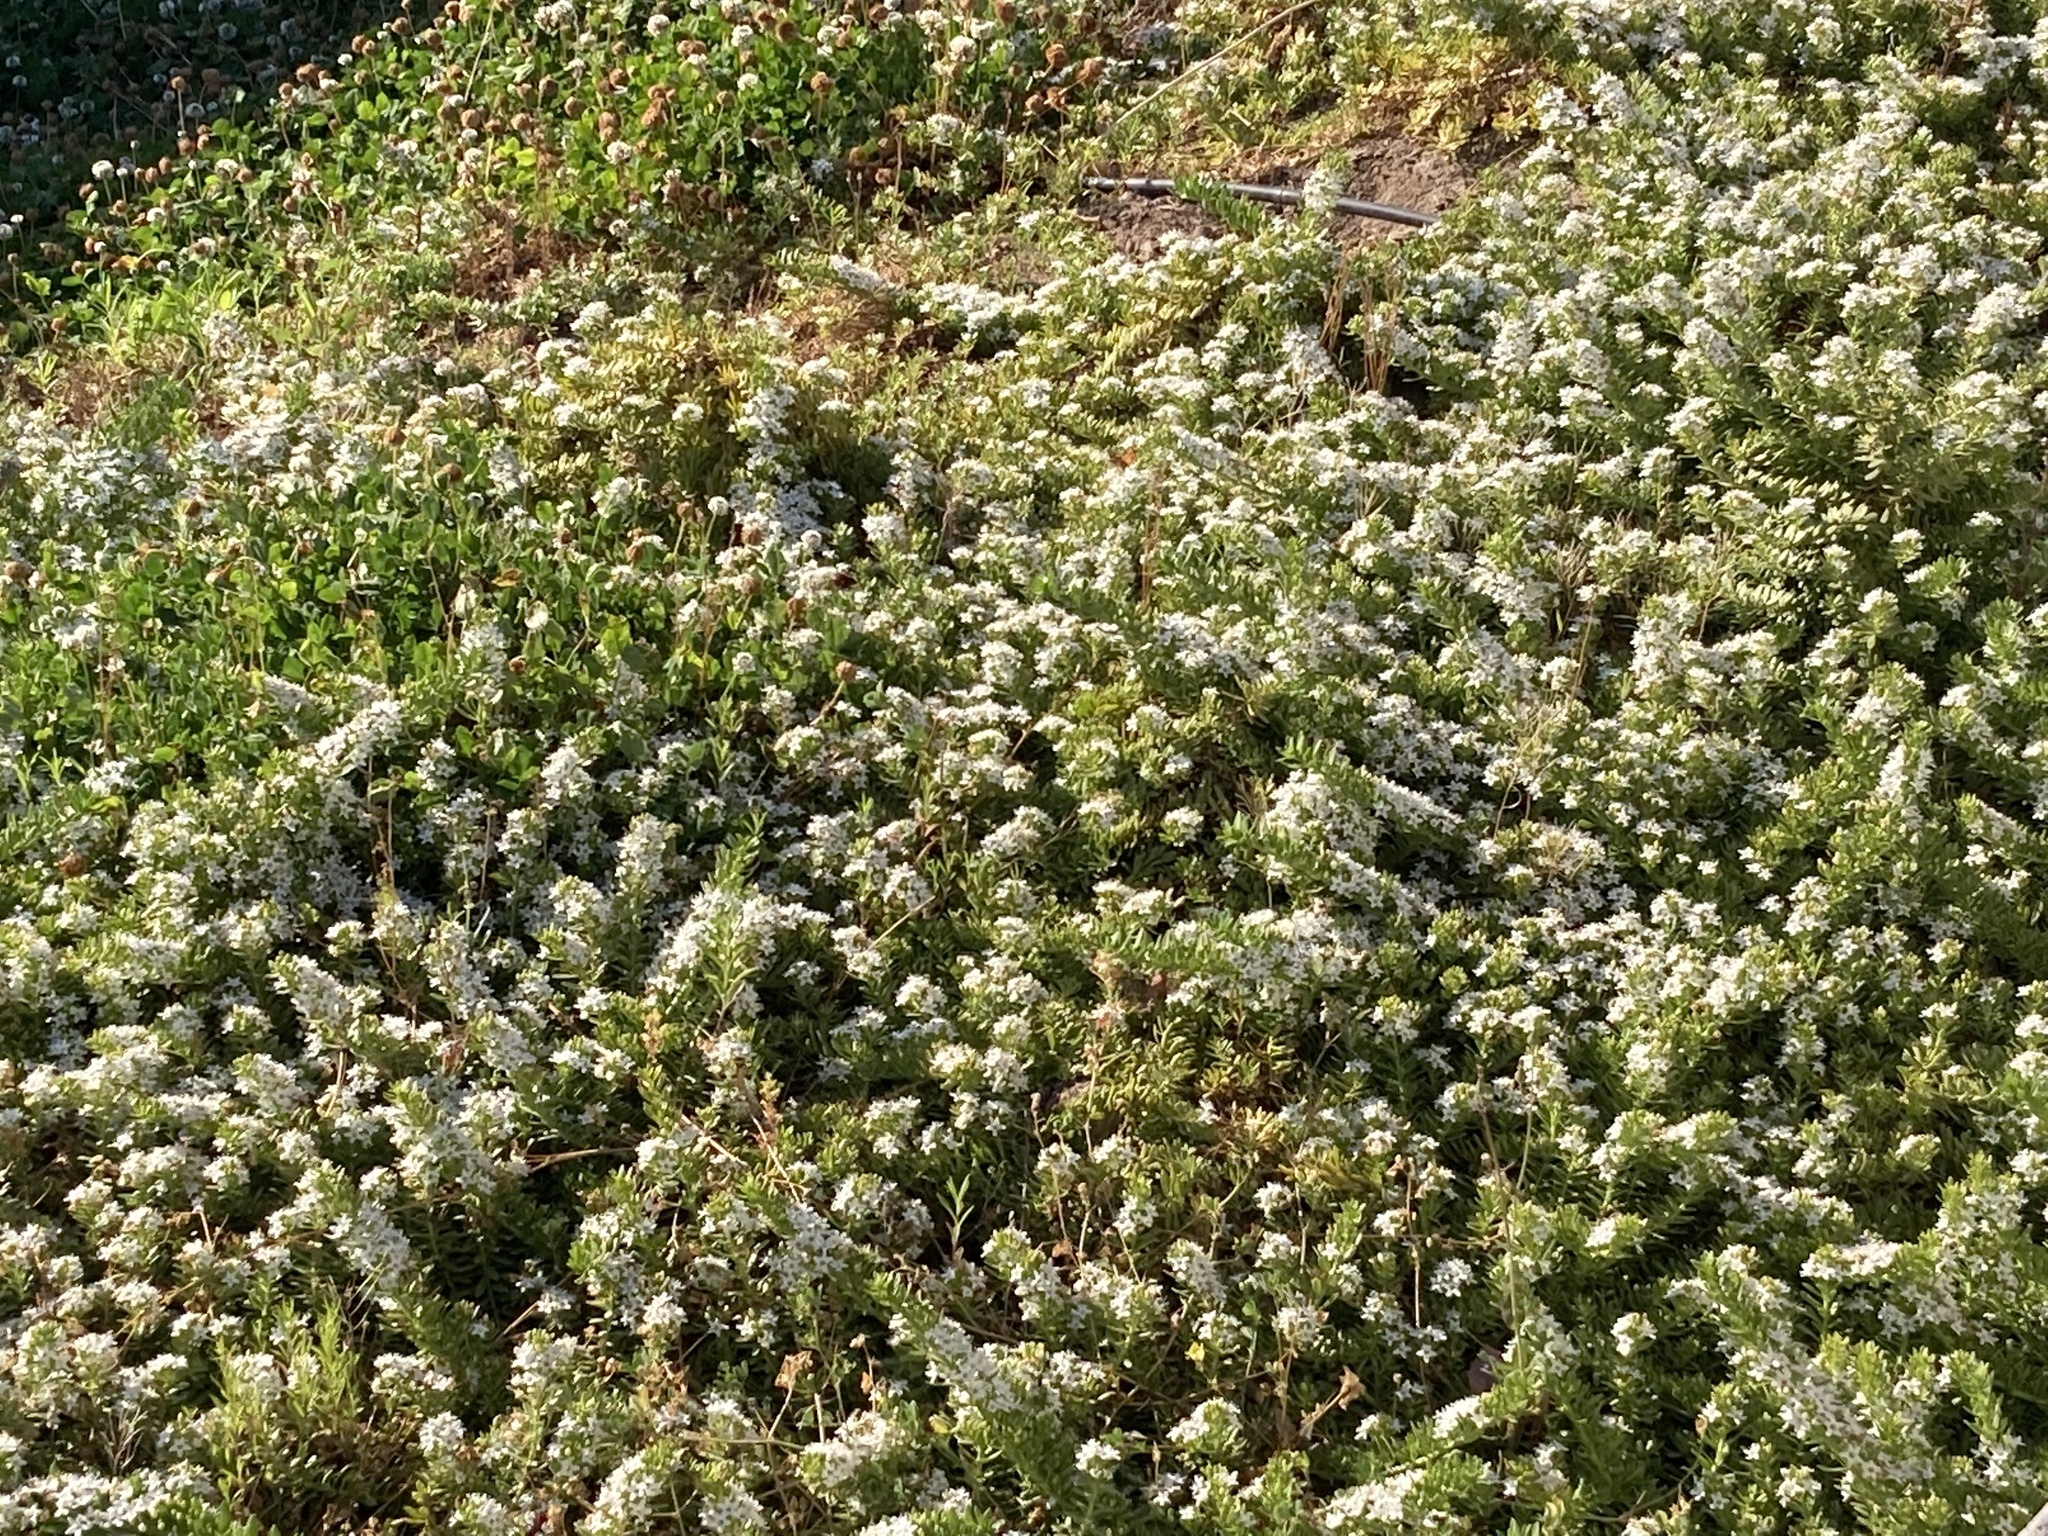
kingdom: Plantae
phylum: Tracheophyta
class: Magnoliopsida
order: Fabales
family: Fabaceae
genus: Trifolium
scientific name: Trifolium repens
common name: White clover
